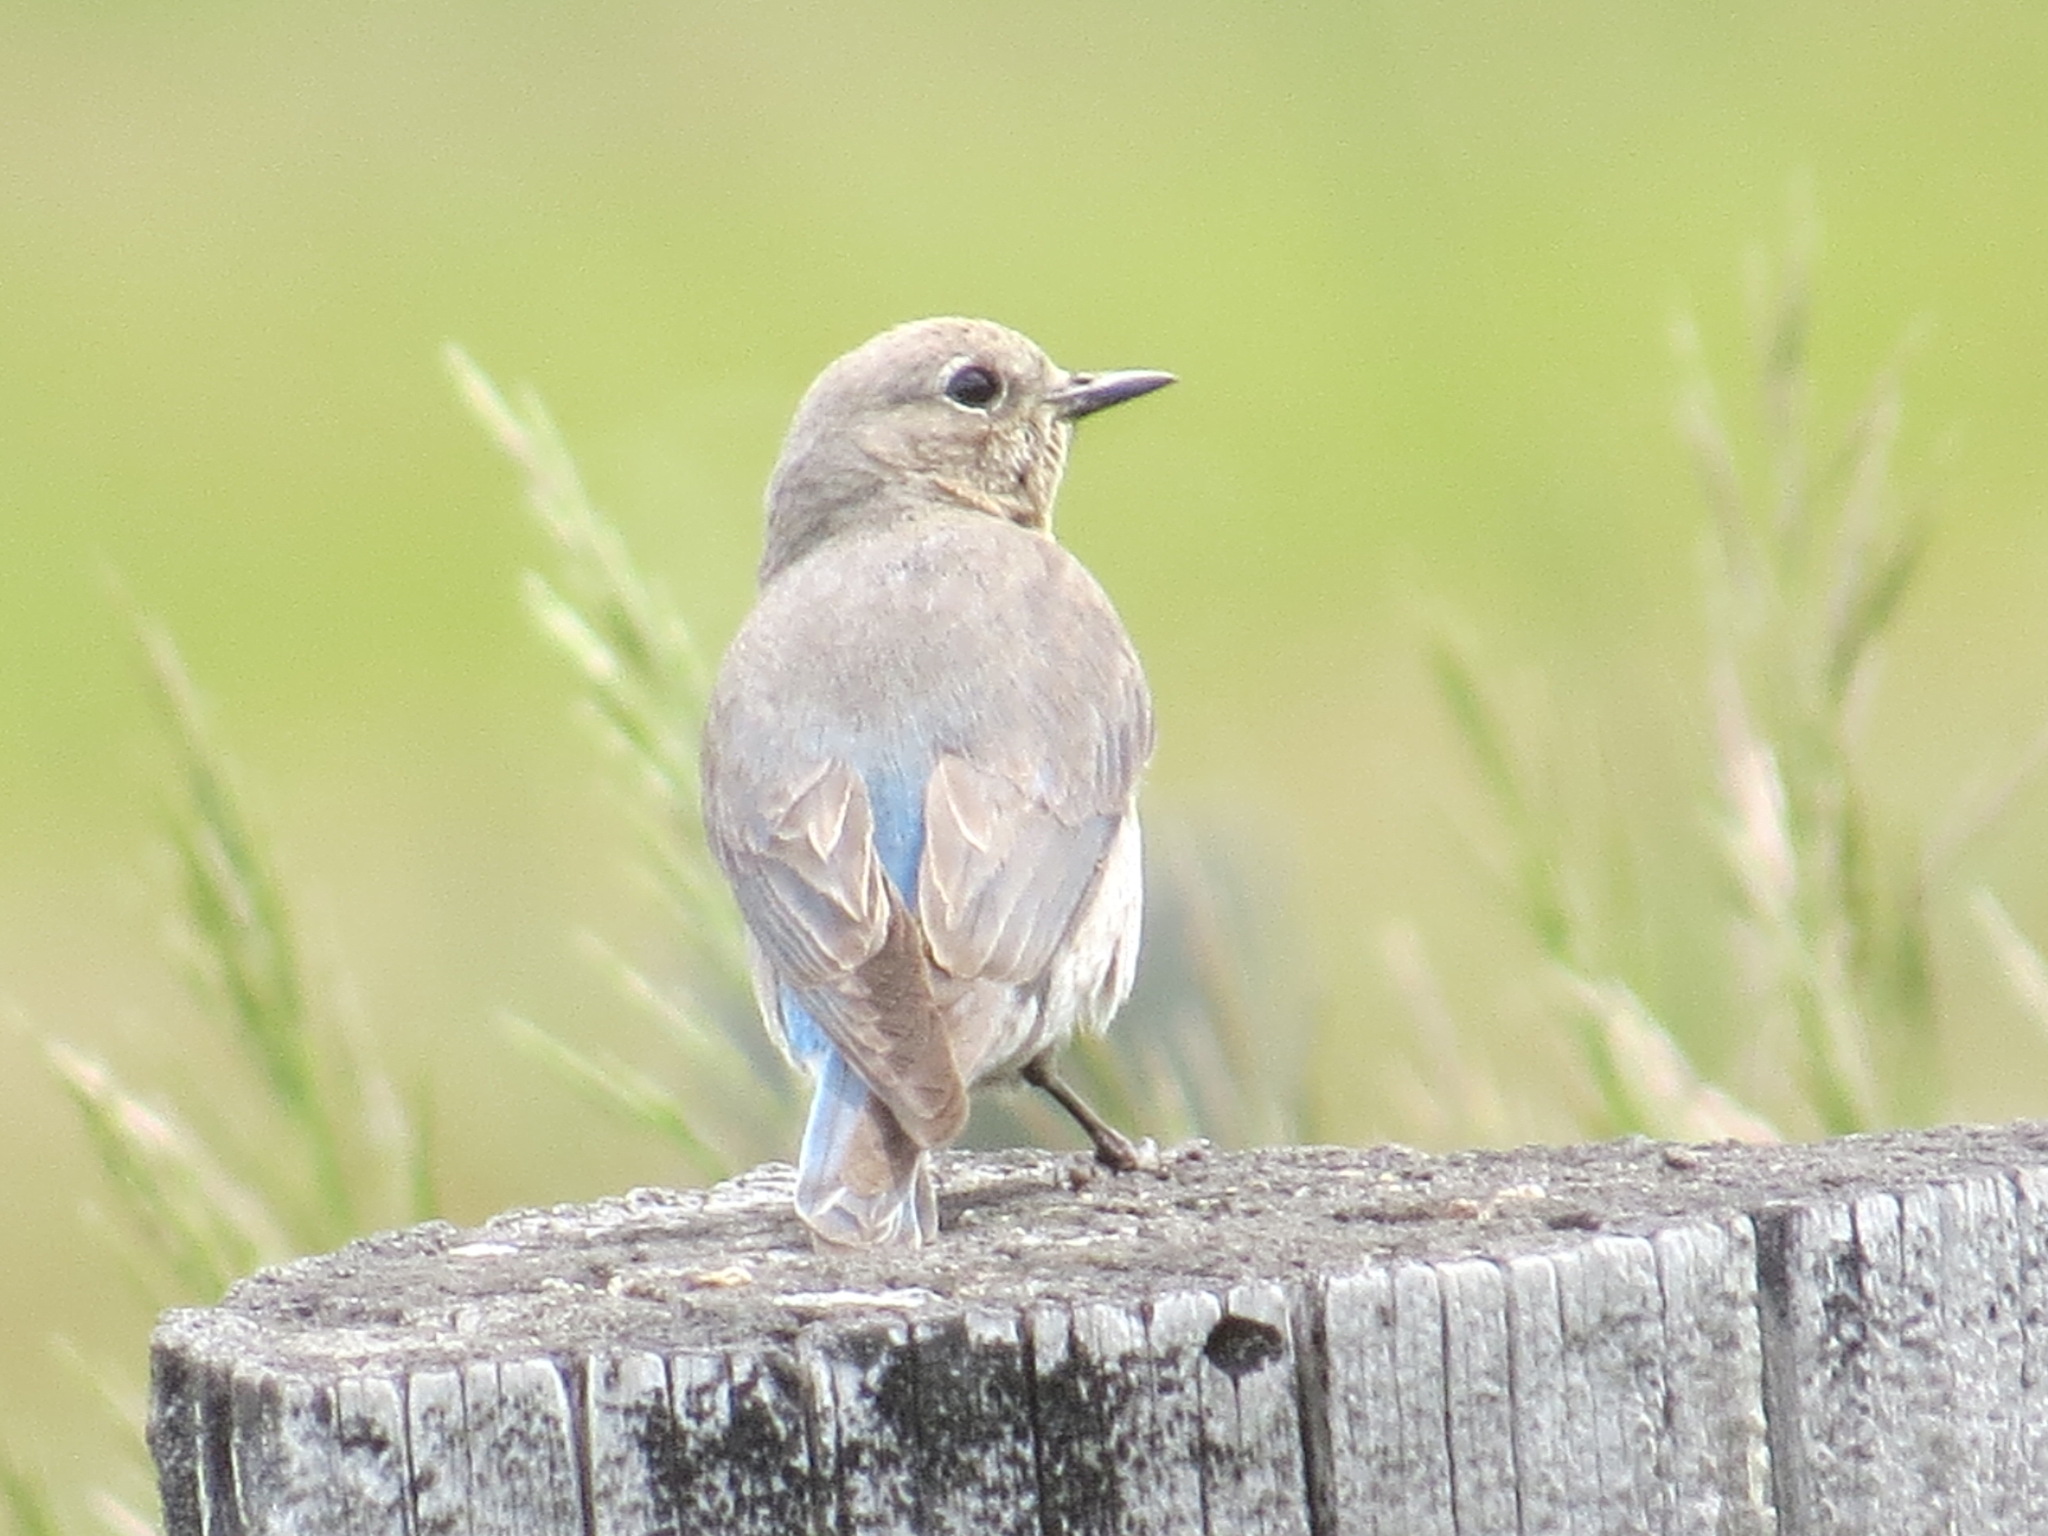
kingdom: Animalia
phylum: Chordata
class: Aves
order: Passeriformes
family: Turdidae
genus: Sialia
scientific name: Sialia currucoides
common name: Mountain bluebird
